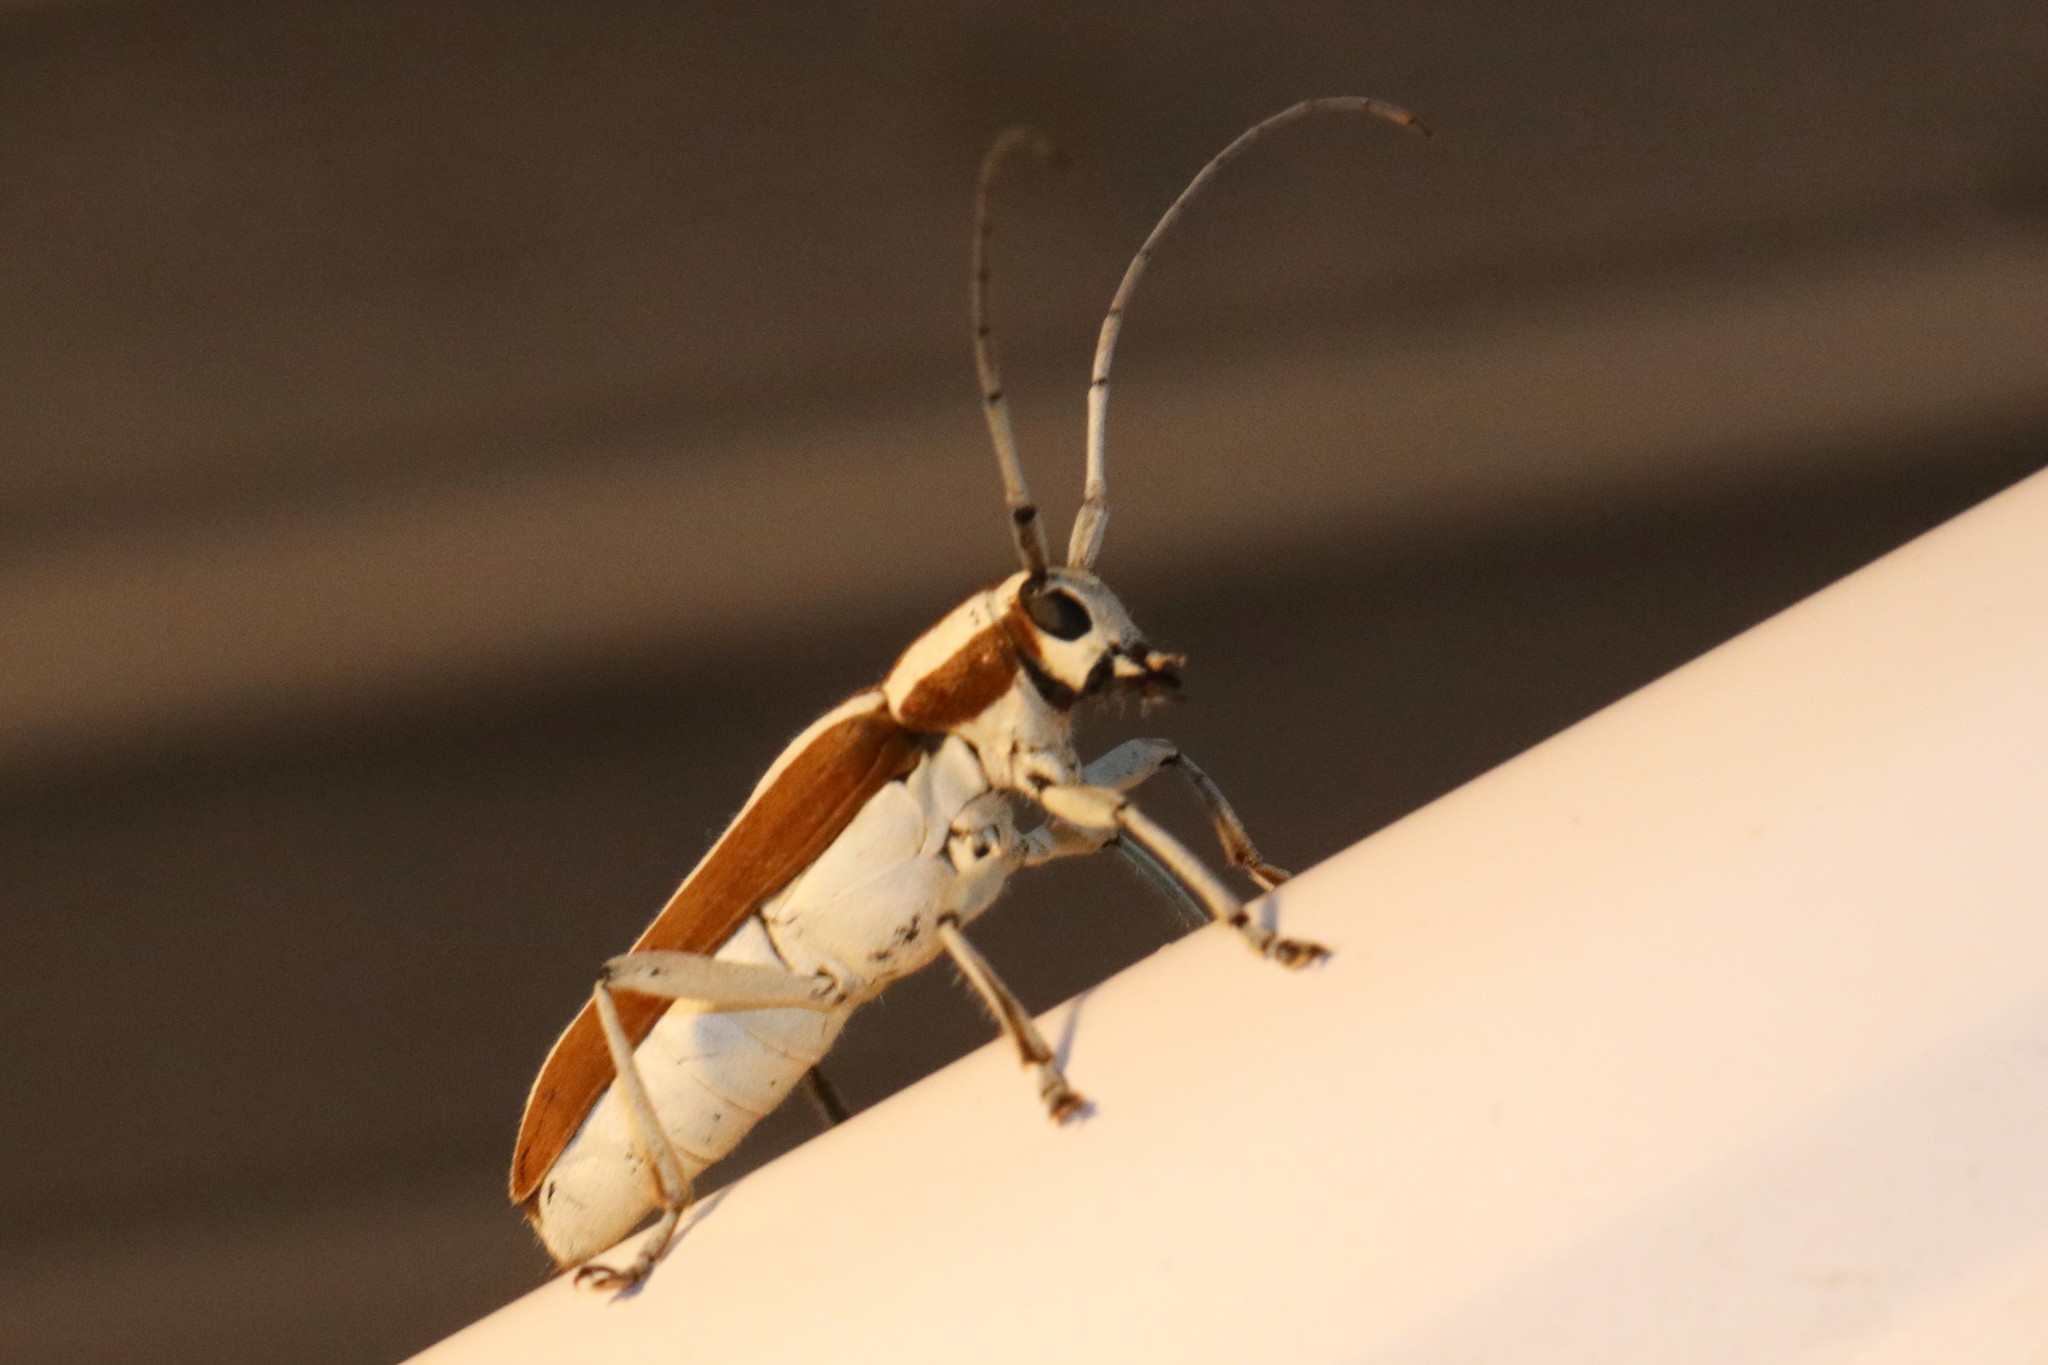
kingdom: Animalia
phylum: Arthropoda
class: Insecta
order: Coleoptera
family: Cerambycidae
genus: Saperda
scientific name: Saperda candida
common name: Round-headed borer
